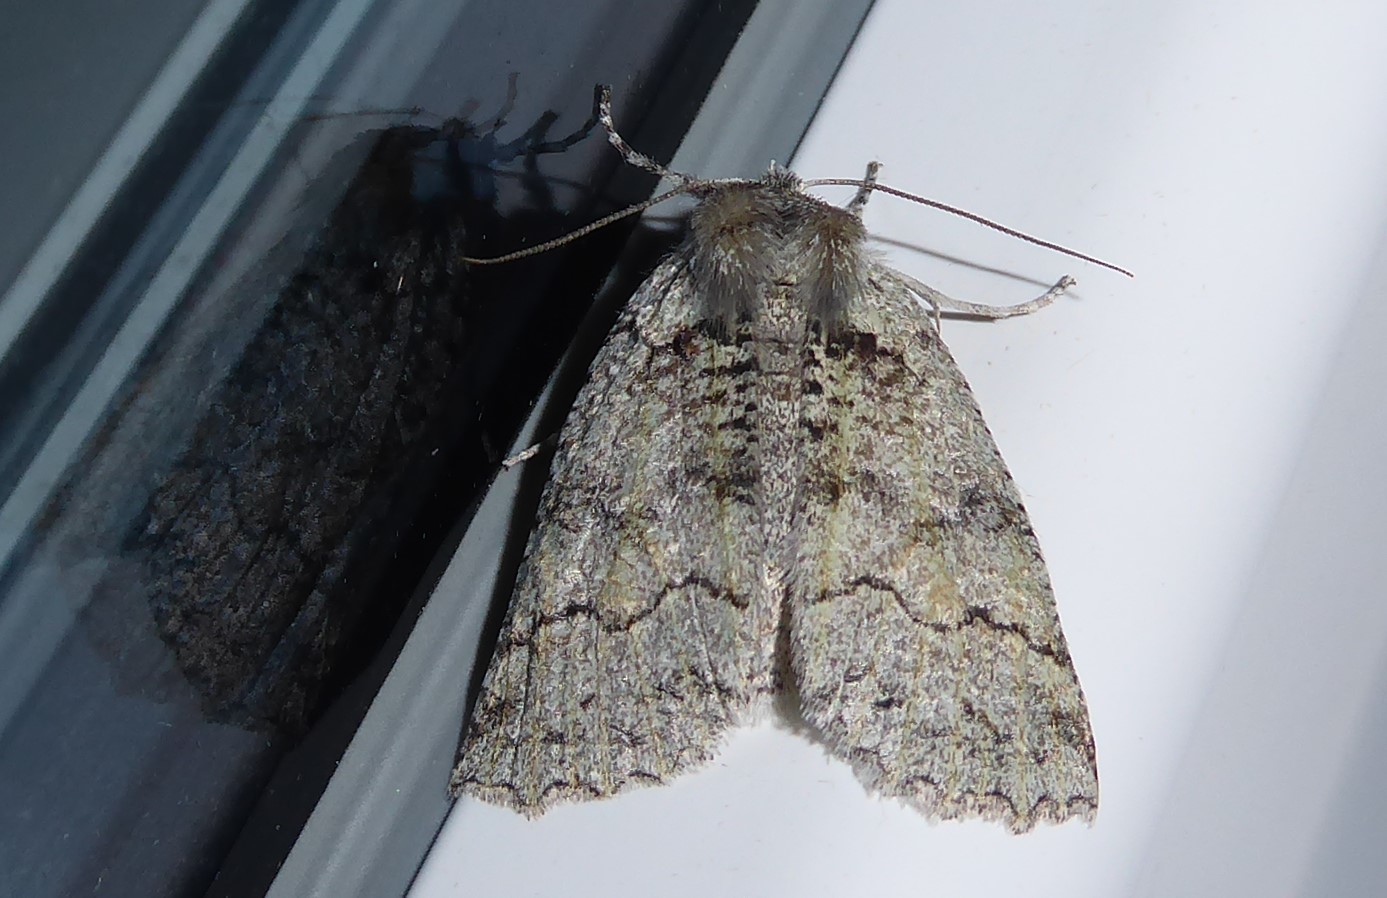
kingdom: Animalia
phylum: Arthropoda
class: Insecta
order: Lepidoptera
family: Geometridae
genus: Declana
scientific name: Declana floccosa
